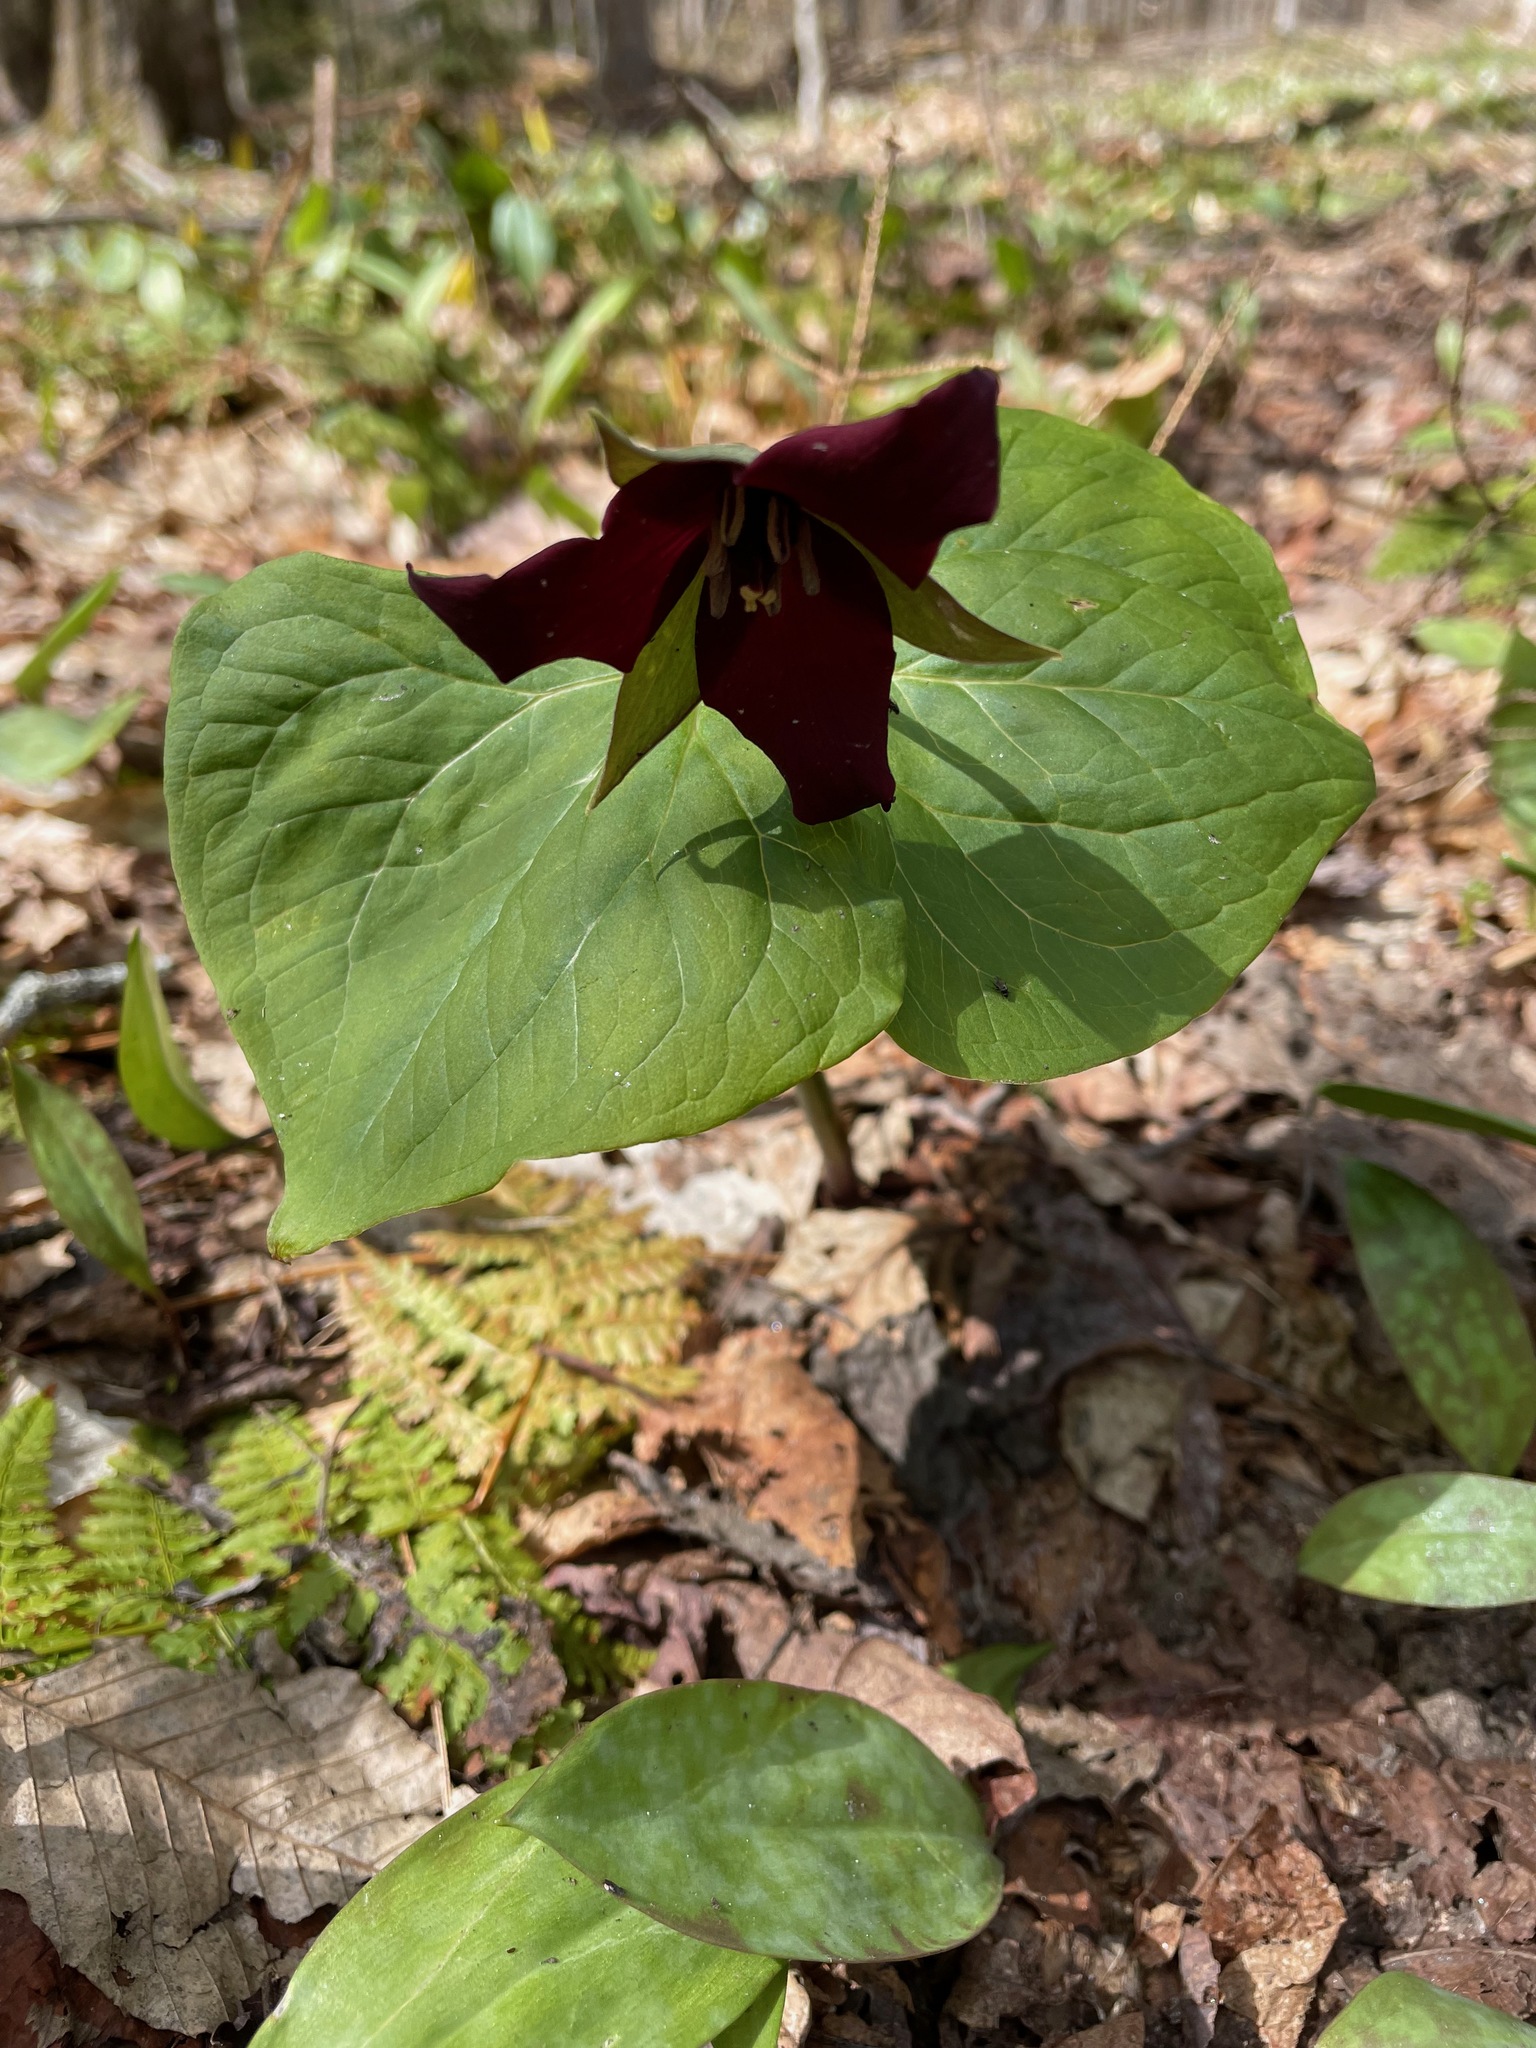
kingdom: Plantae
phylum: Tracheophyta
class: Liliopsida
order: Liliales
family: Melanthiaceae
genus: Trillium
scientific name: Trillium erectum
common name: Purple trillium
